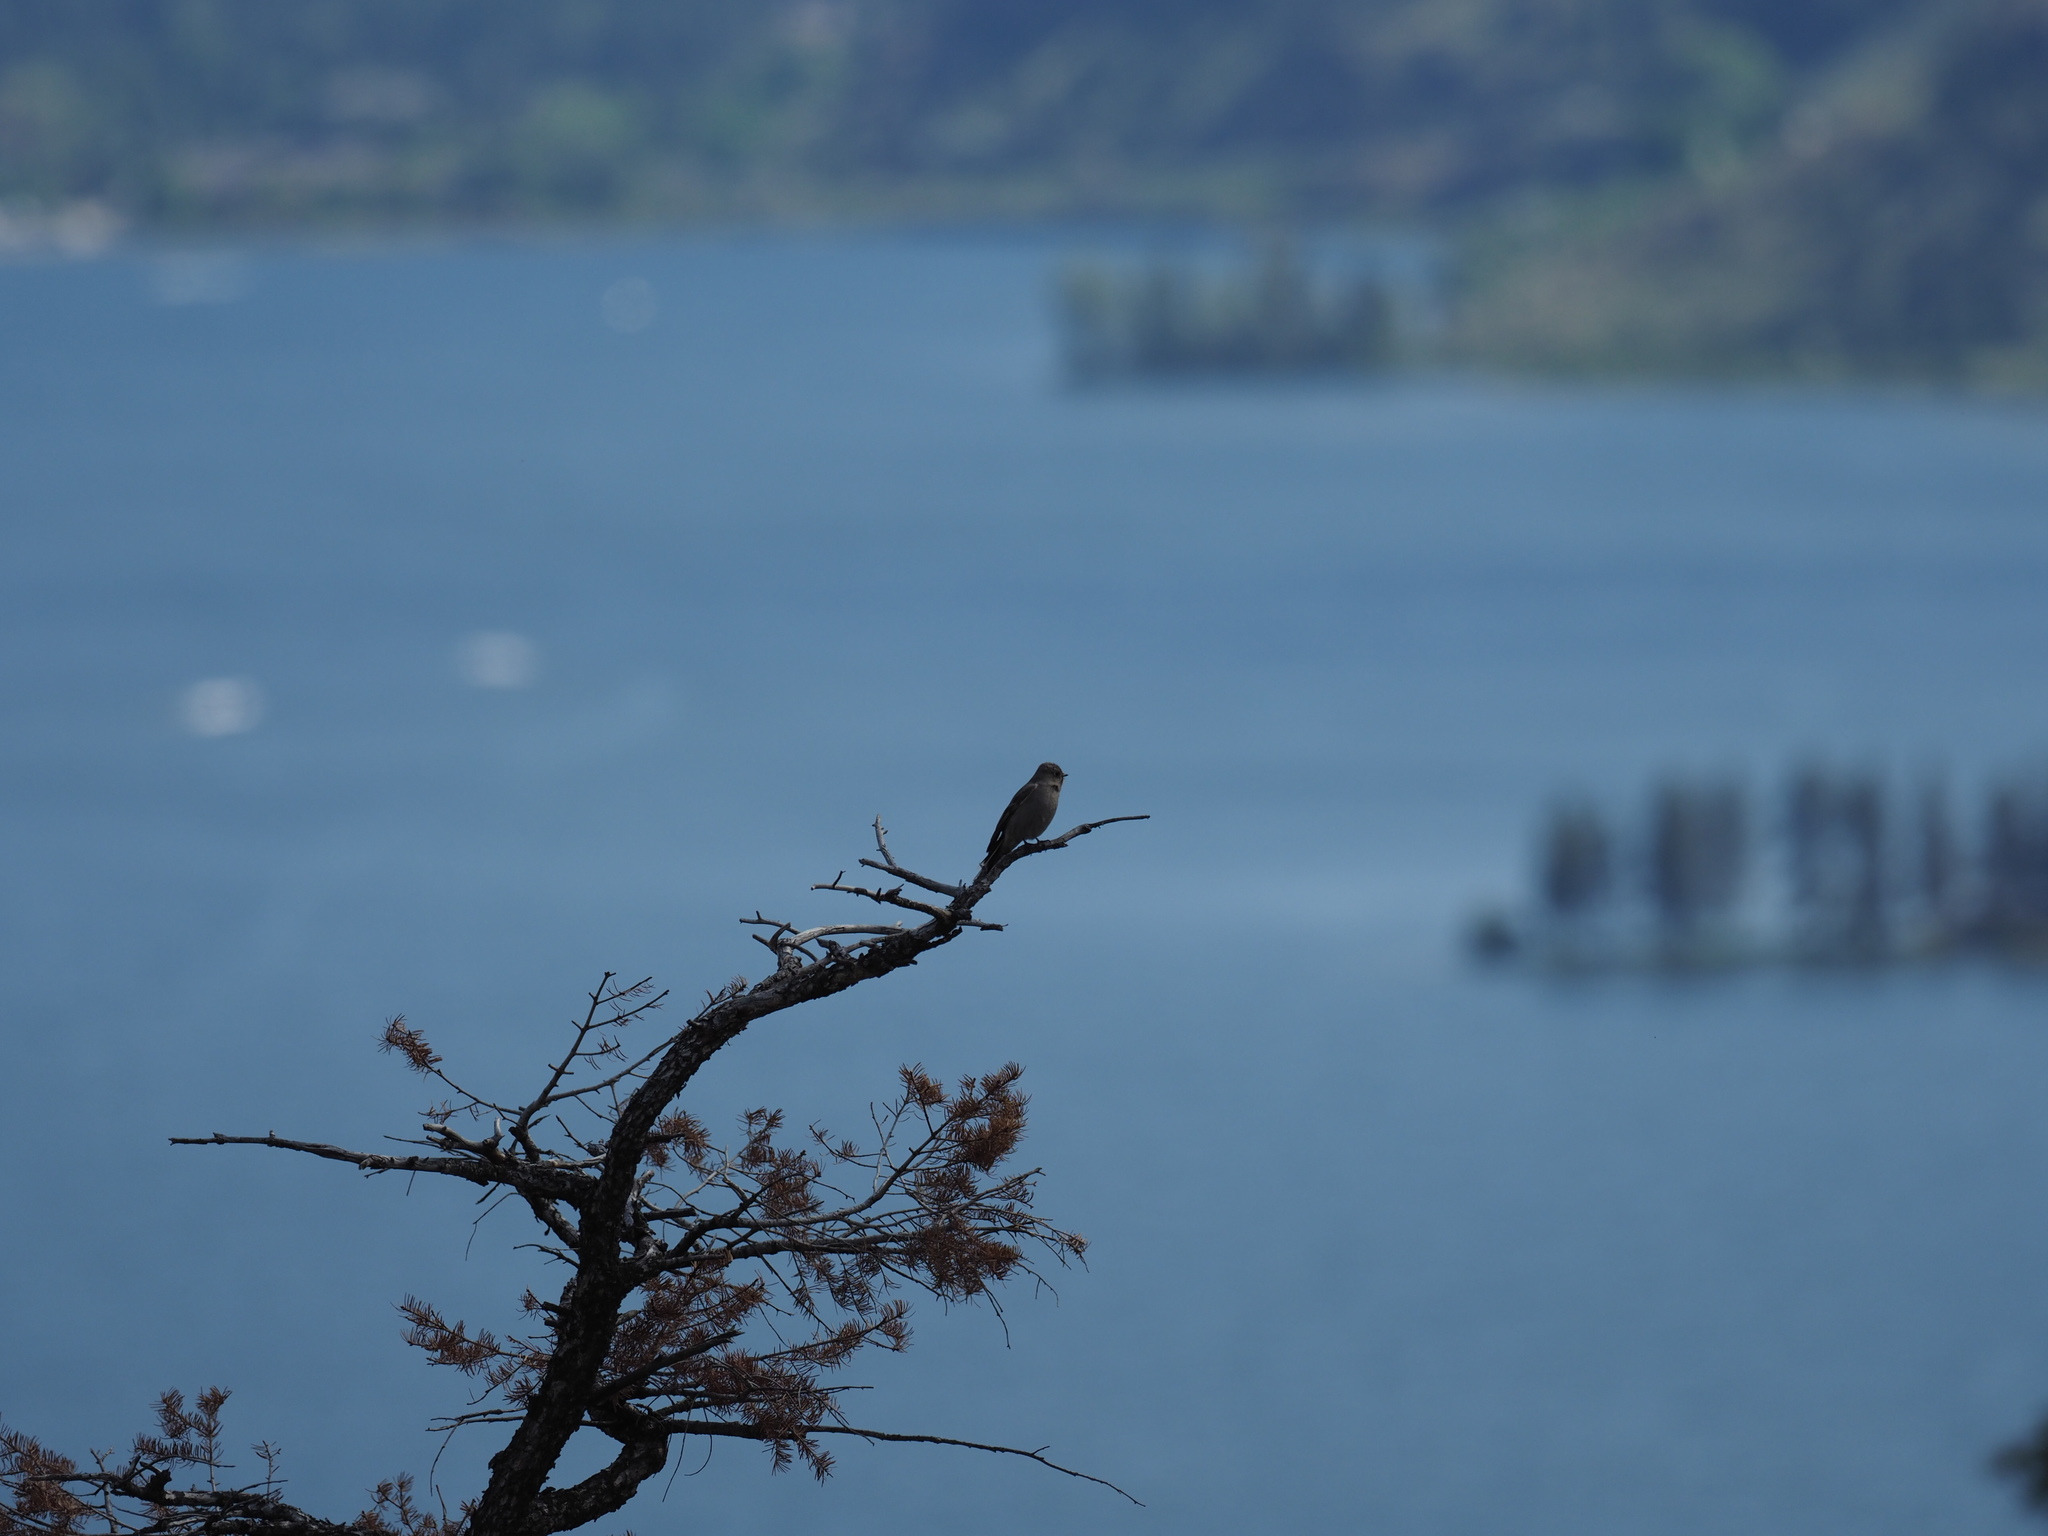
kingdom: Animalia
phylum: Chordata
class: Aves
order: Passeriformes
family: Turdidae
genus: Myadestes
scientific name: Myadestes townsendi
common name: Townsend's solitaire
